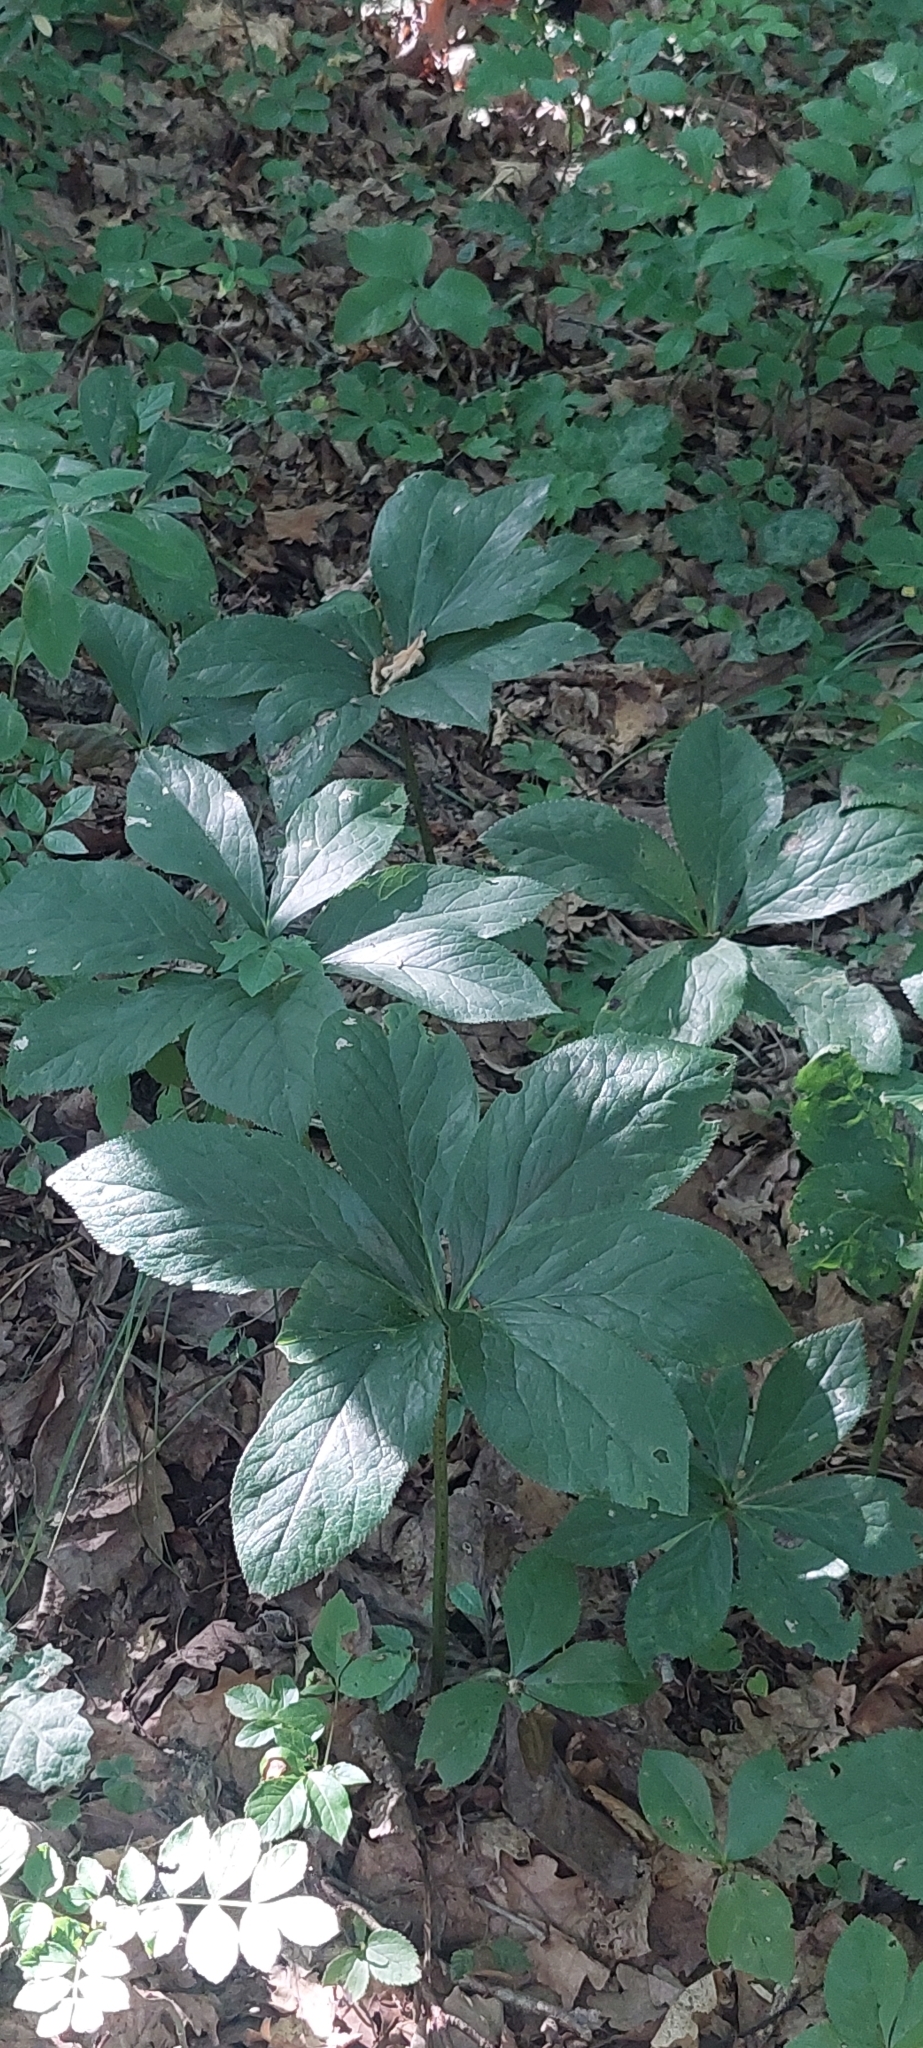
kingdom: Plantae
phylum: Tracheophyta
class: Magnoliopsida
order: Ranunculales
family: Ranunculaceae
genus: Helleborus
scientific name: Helleborus orientalis
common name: Lenten-rose
